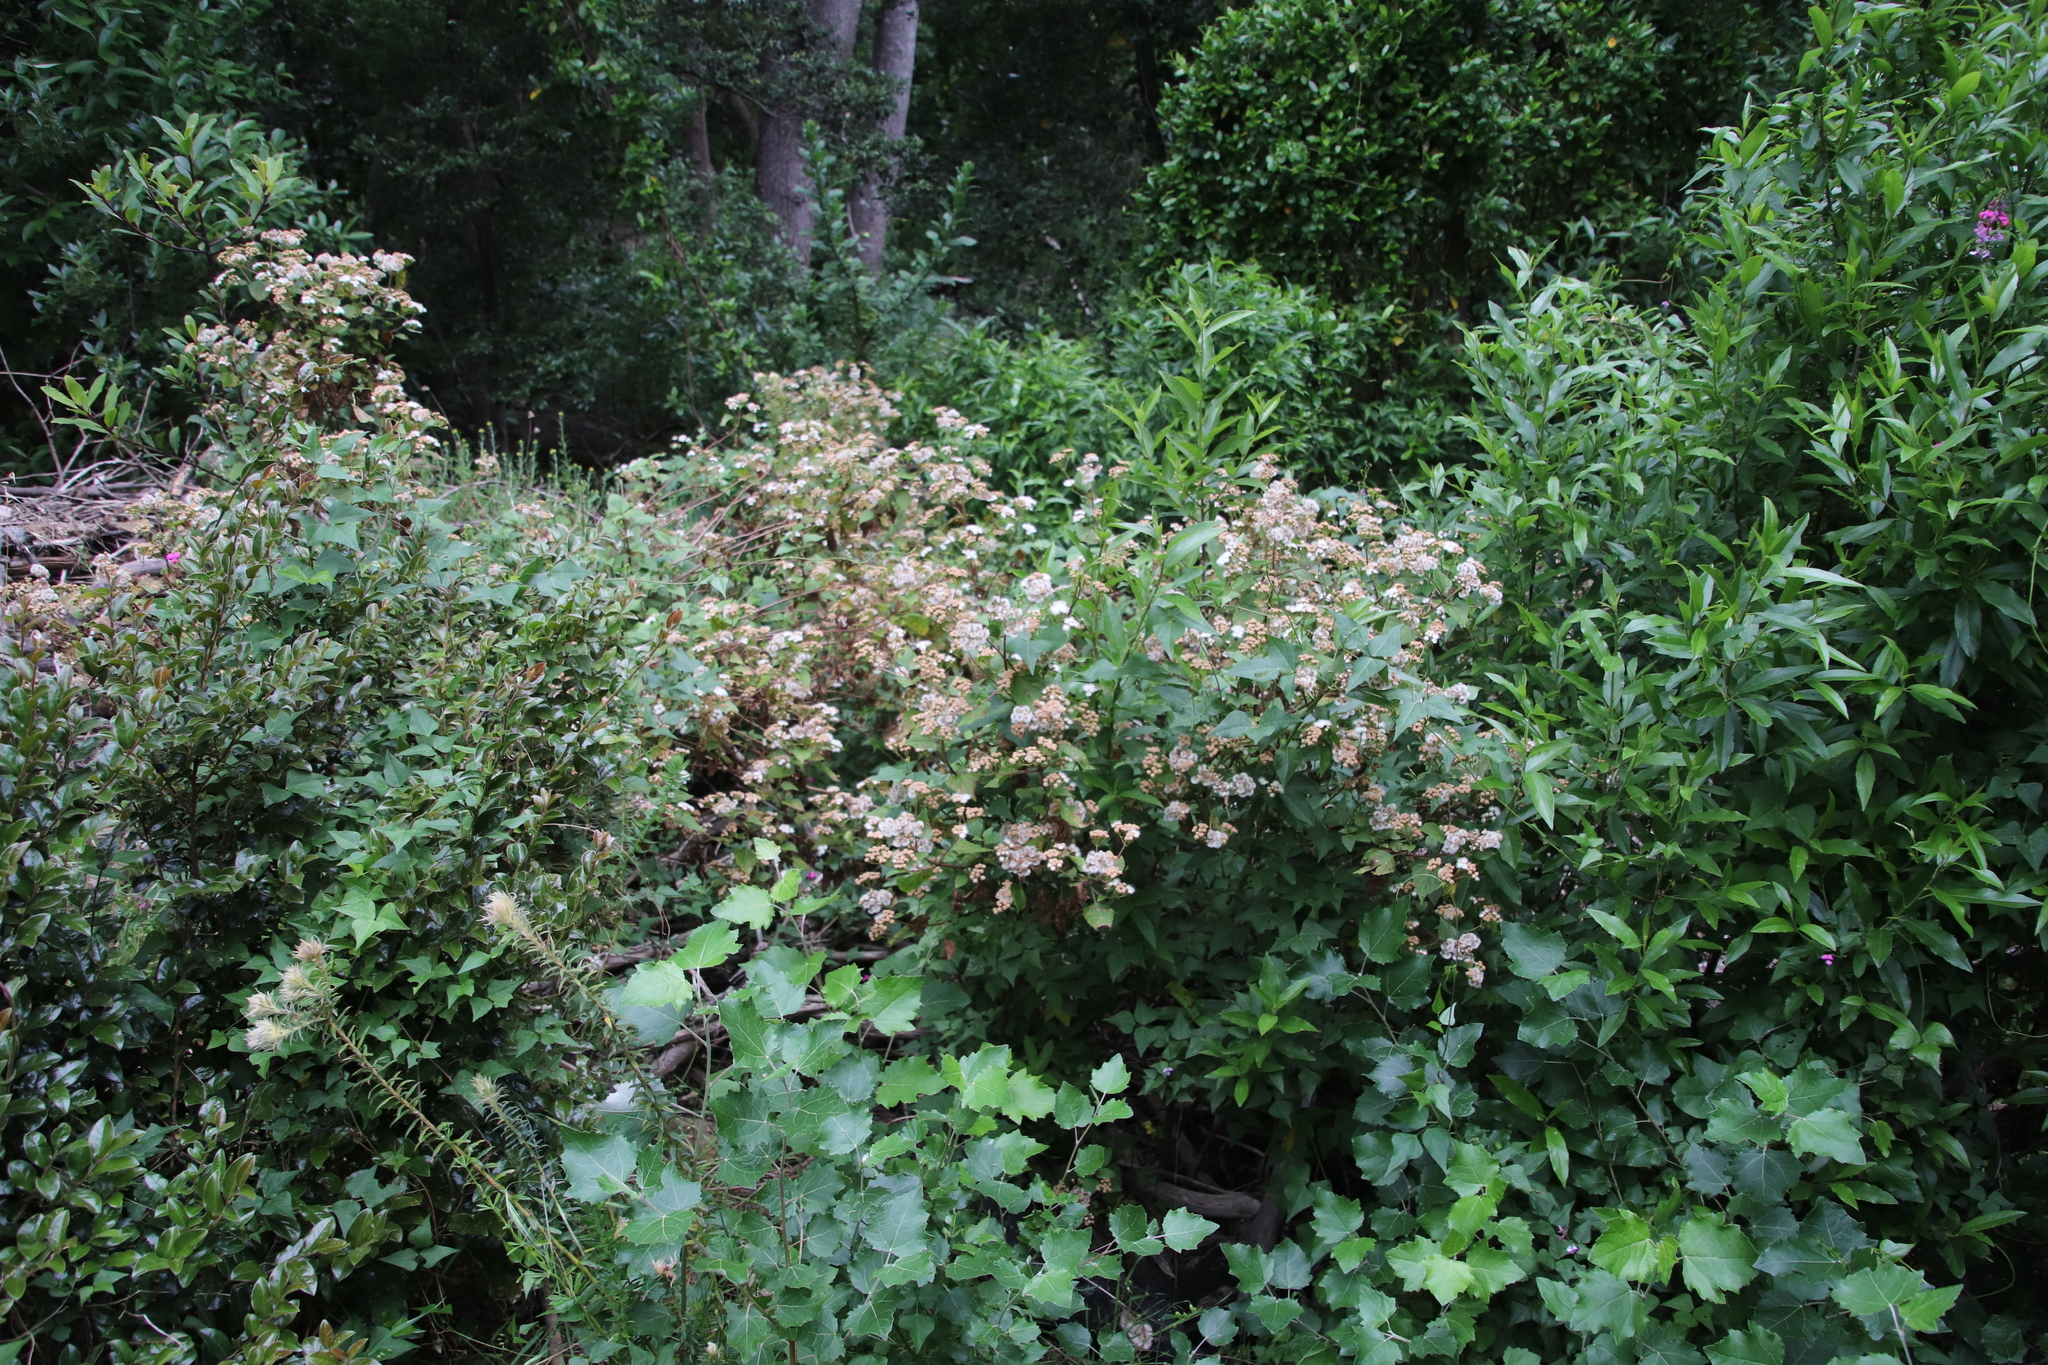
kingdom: Plantae
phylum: Tracheophyta
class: Magnoliopsida
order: Asterales
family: Asteraceae
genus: Ageratina
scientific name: Ageratina adenophora
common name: Sticky snakeroot
